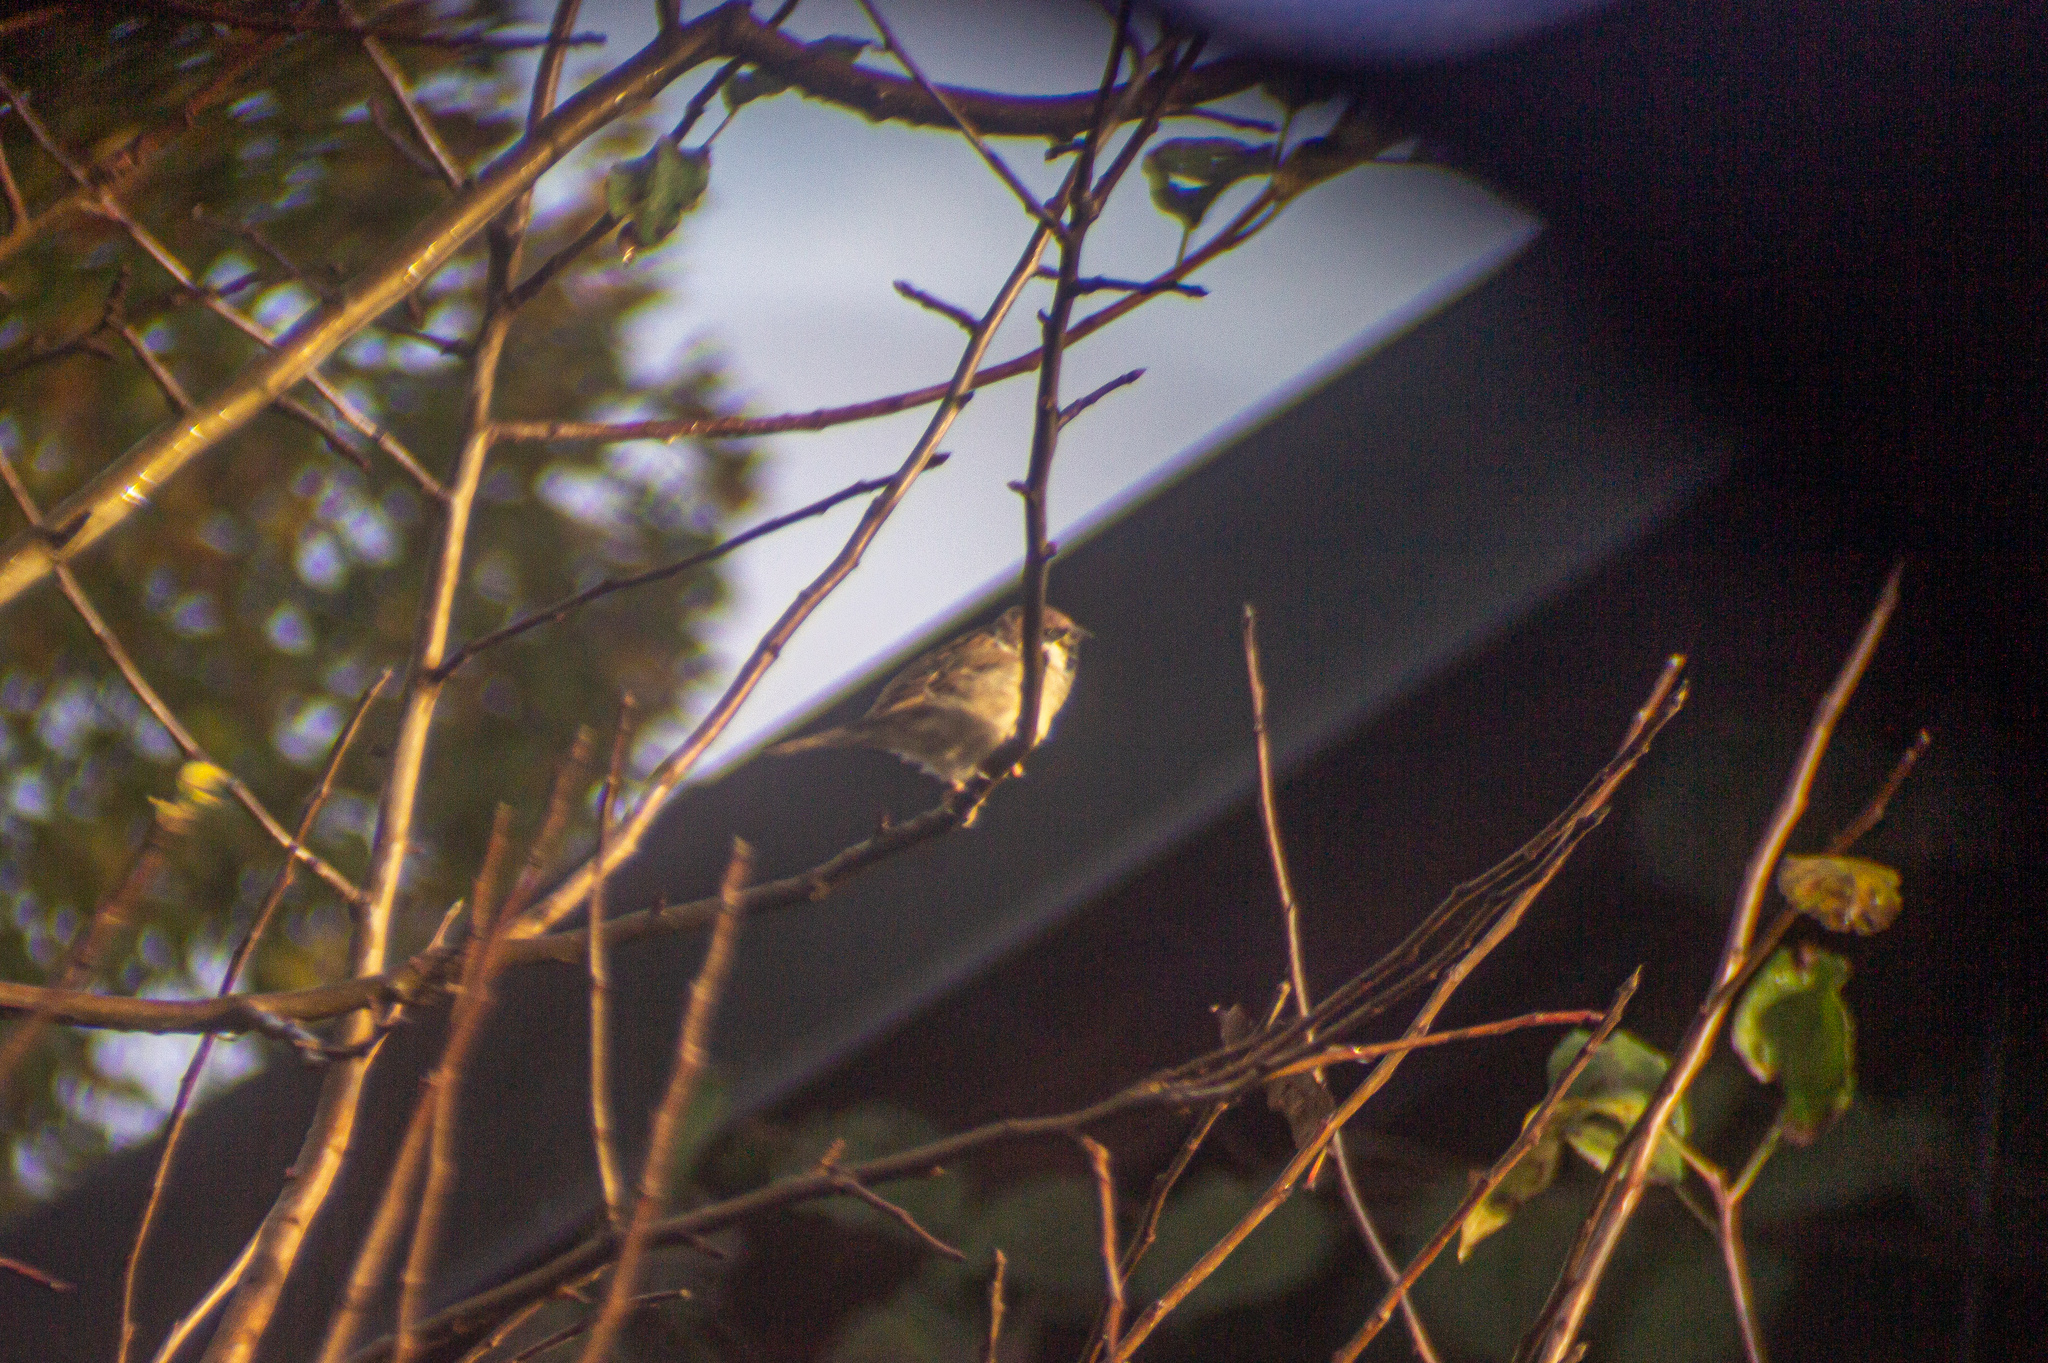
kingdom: Animalia
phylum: Chordata
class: Aves
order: Passeriformes
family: Passeridae
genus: Passer
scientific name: Passer montanus
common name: Eurasian tree sparrow
